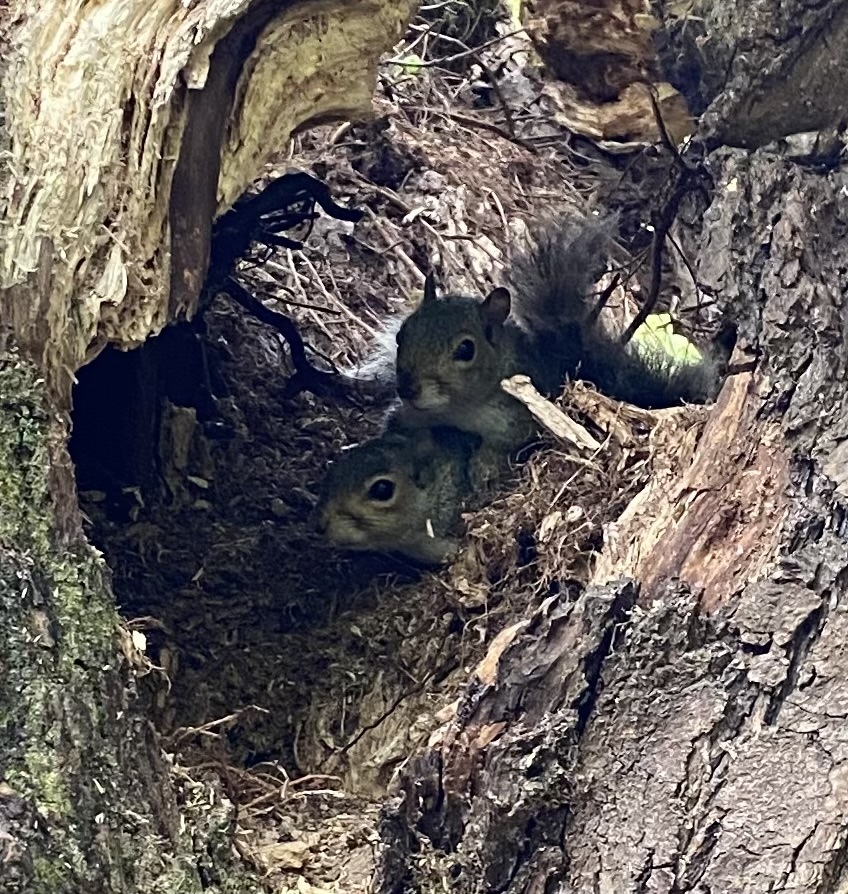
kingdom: Animalia
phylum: Chordata
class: Mammalia
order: Rodentia
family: Sciuridae
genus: Sciurus
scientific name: Sciurus carolinensis
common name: Eastern gray squirrel
